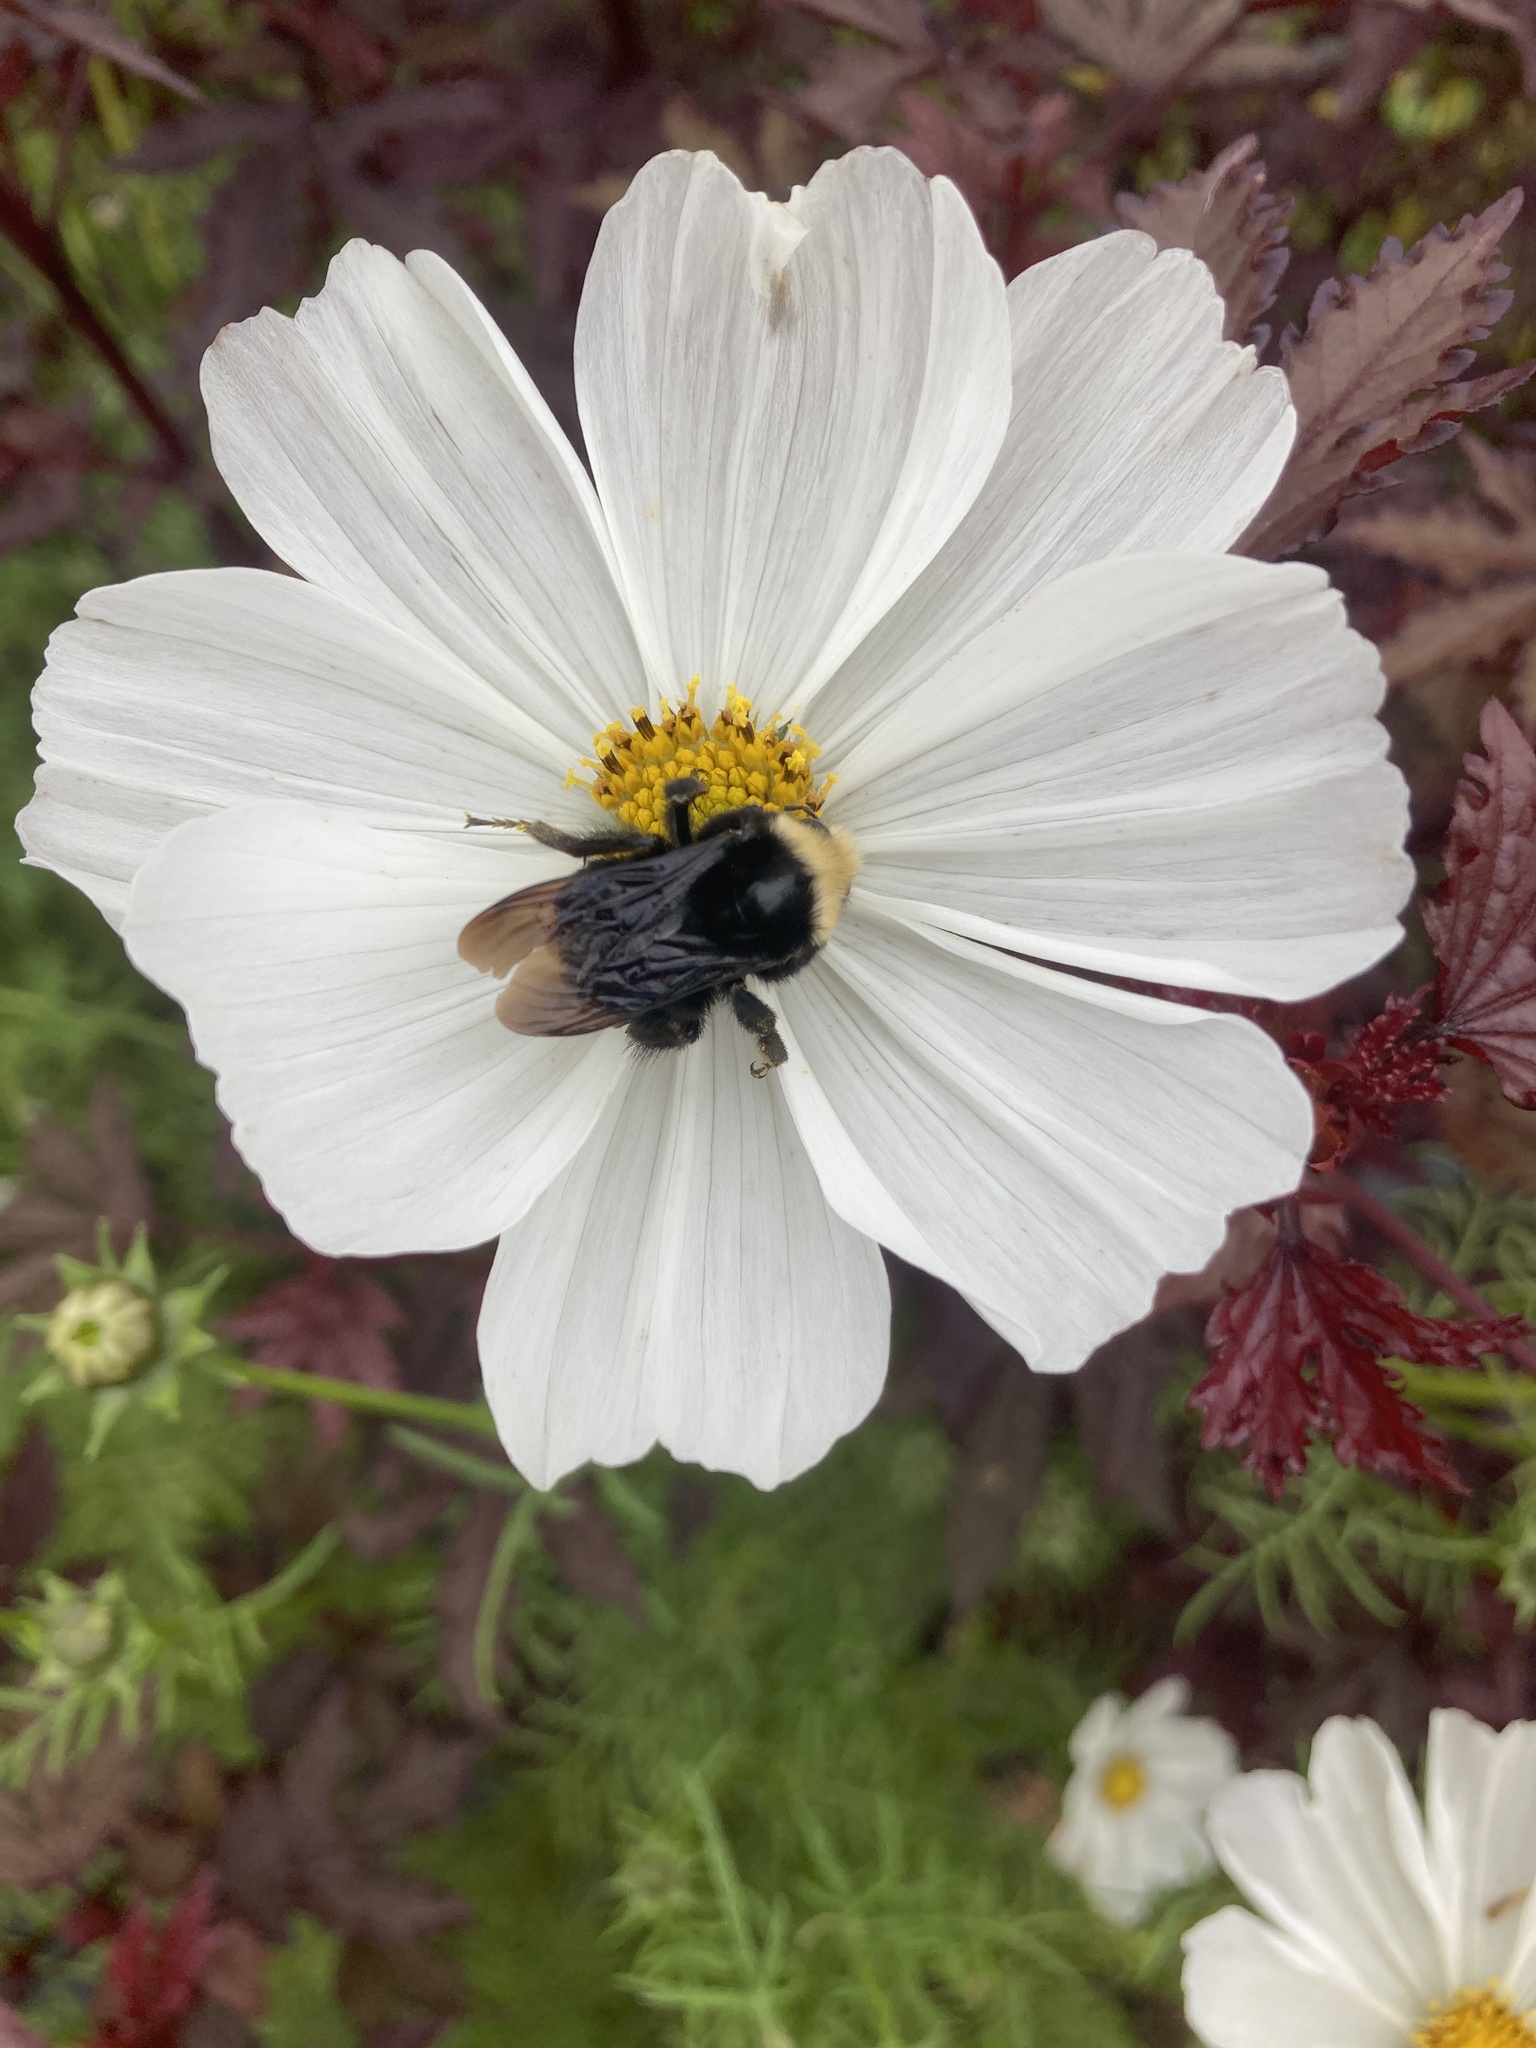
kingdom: Animalia
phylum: Arthropoda
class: Insecta
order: Hymenoptera
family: Apidae
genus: Bombus
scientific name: Bombus vosnesenskii
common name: Vosnesensky bumble bee
